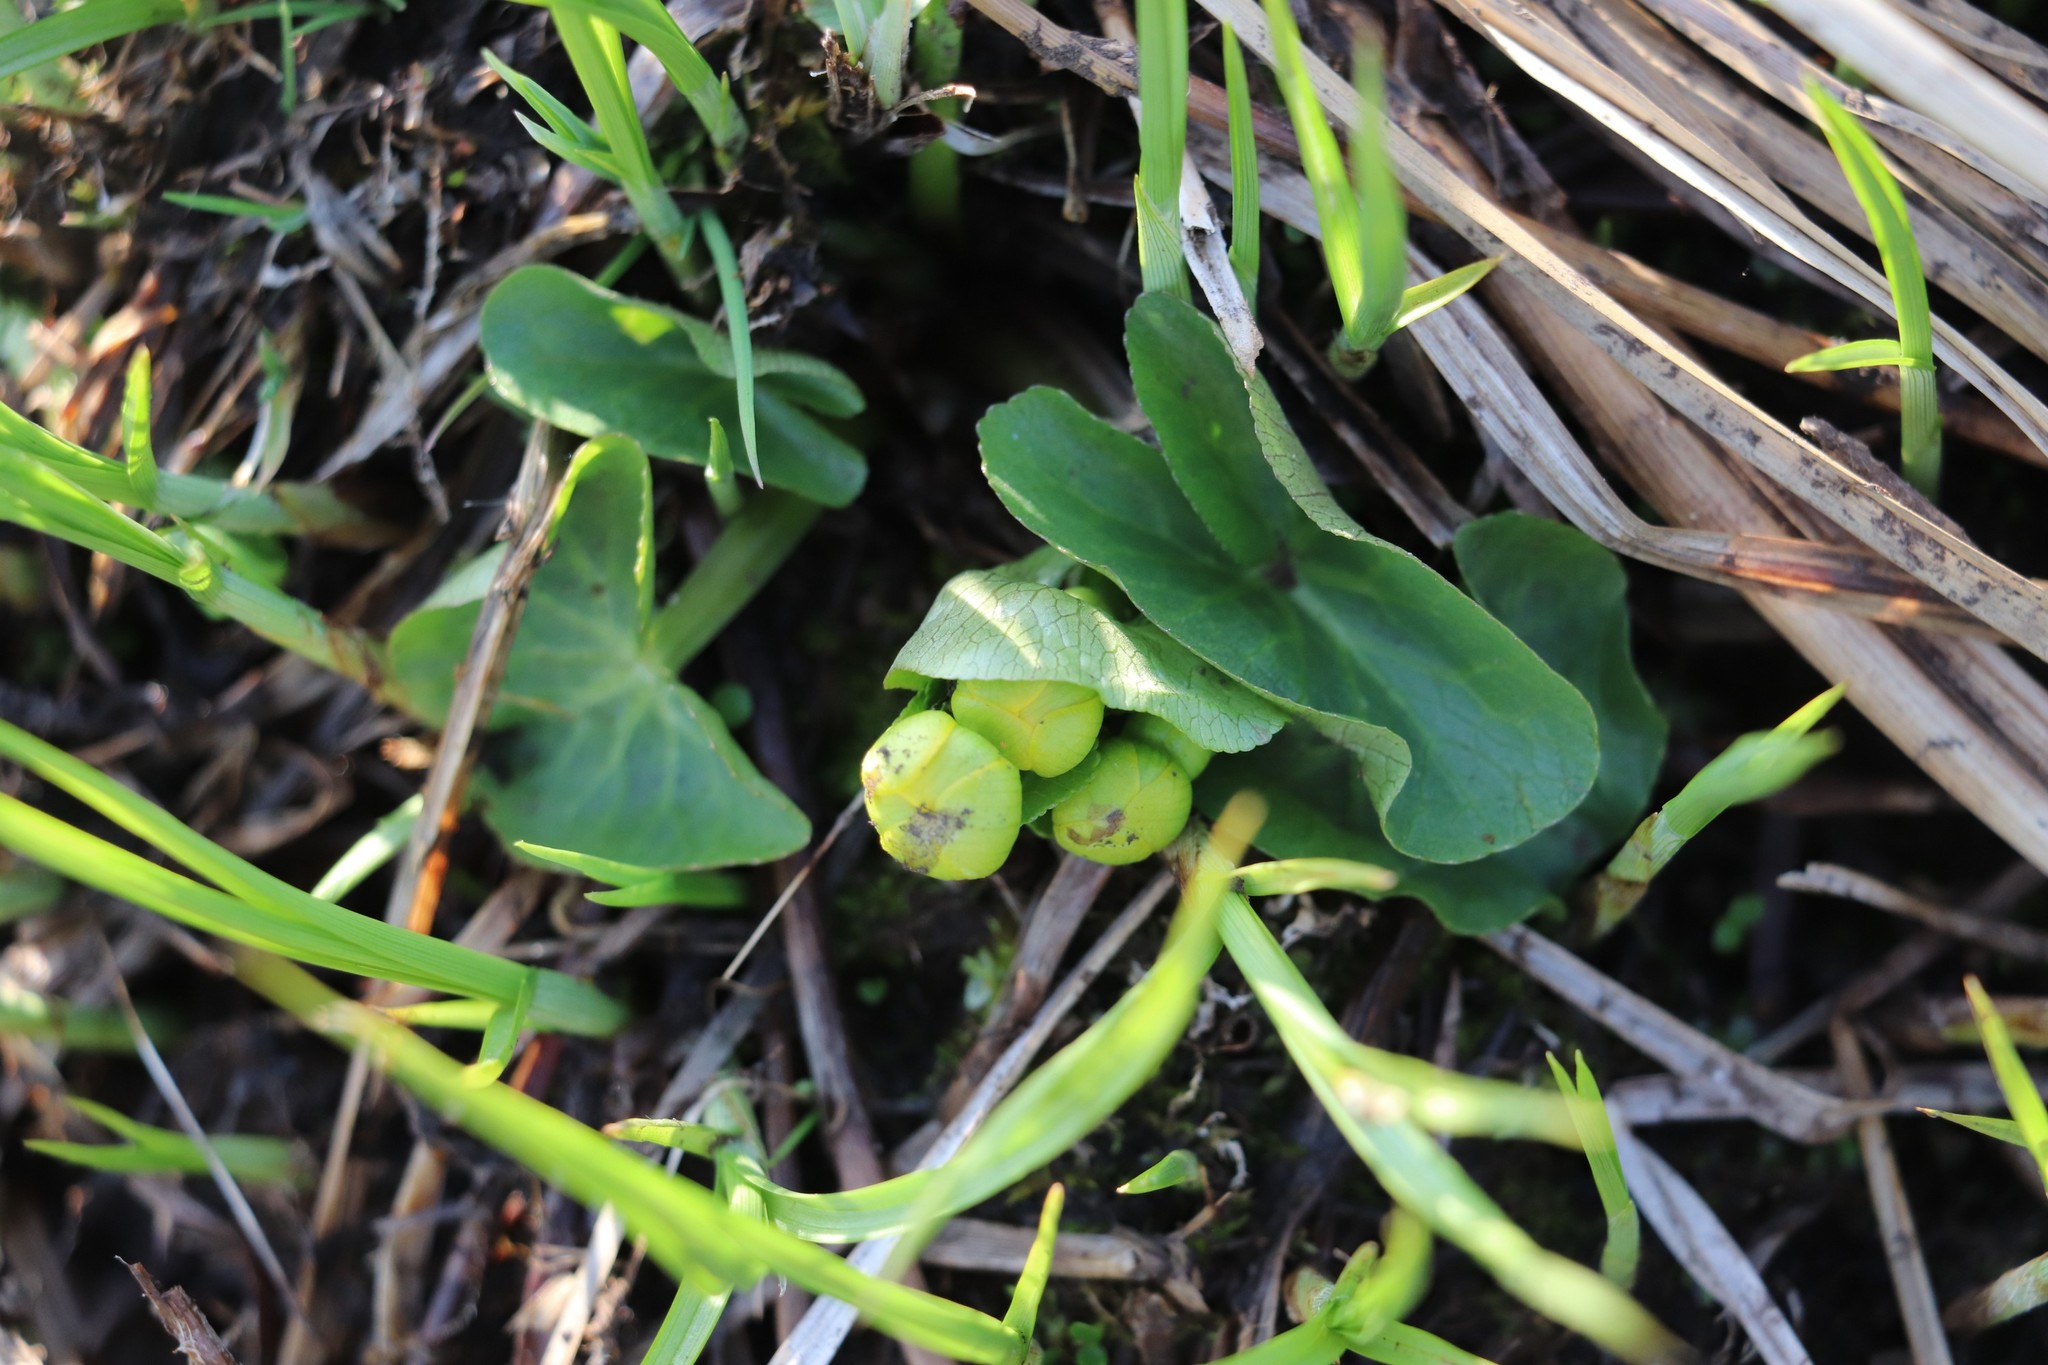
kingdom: Plantae
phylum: Tracheophyta
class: Magnoliopsida
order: Ranunculales
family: Ranunculaceae
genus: Caltha
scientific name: Caltha palustris
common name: Marsh marigold
